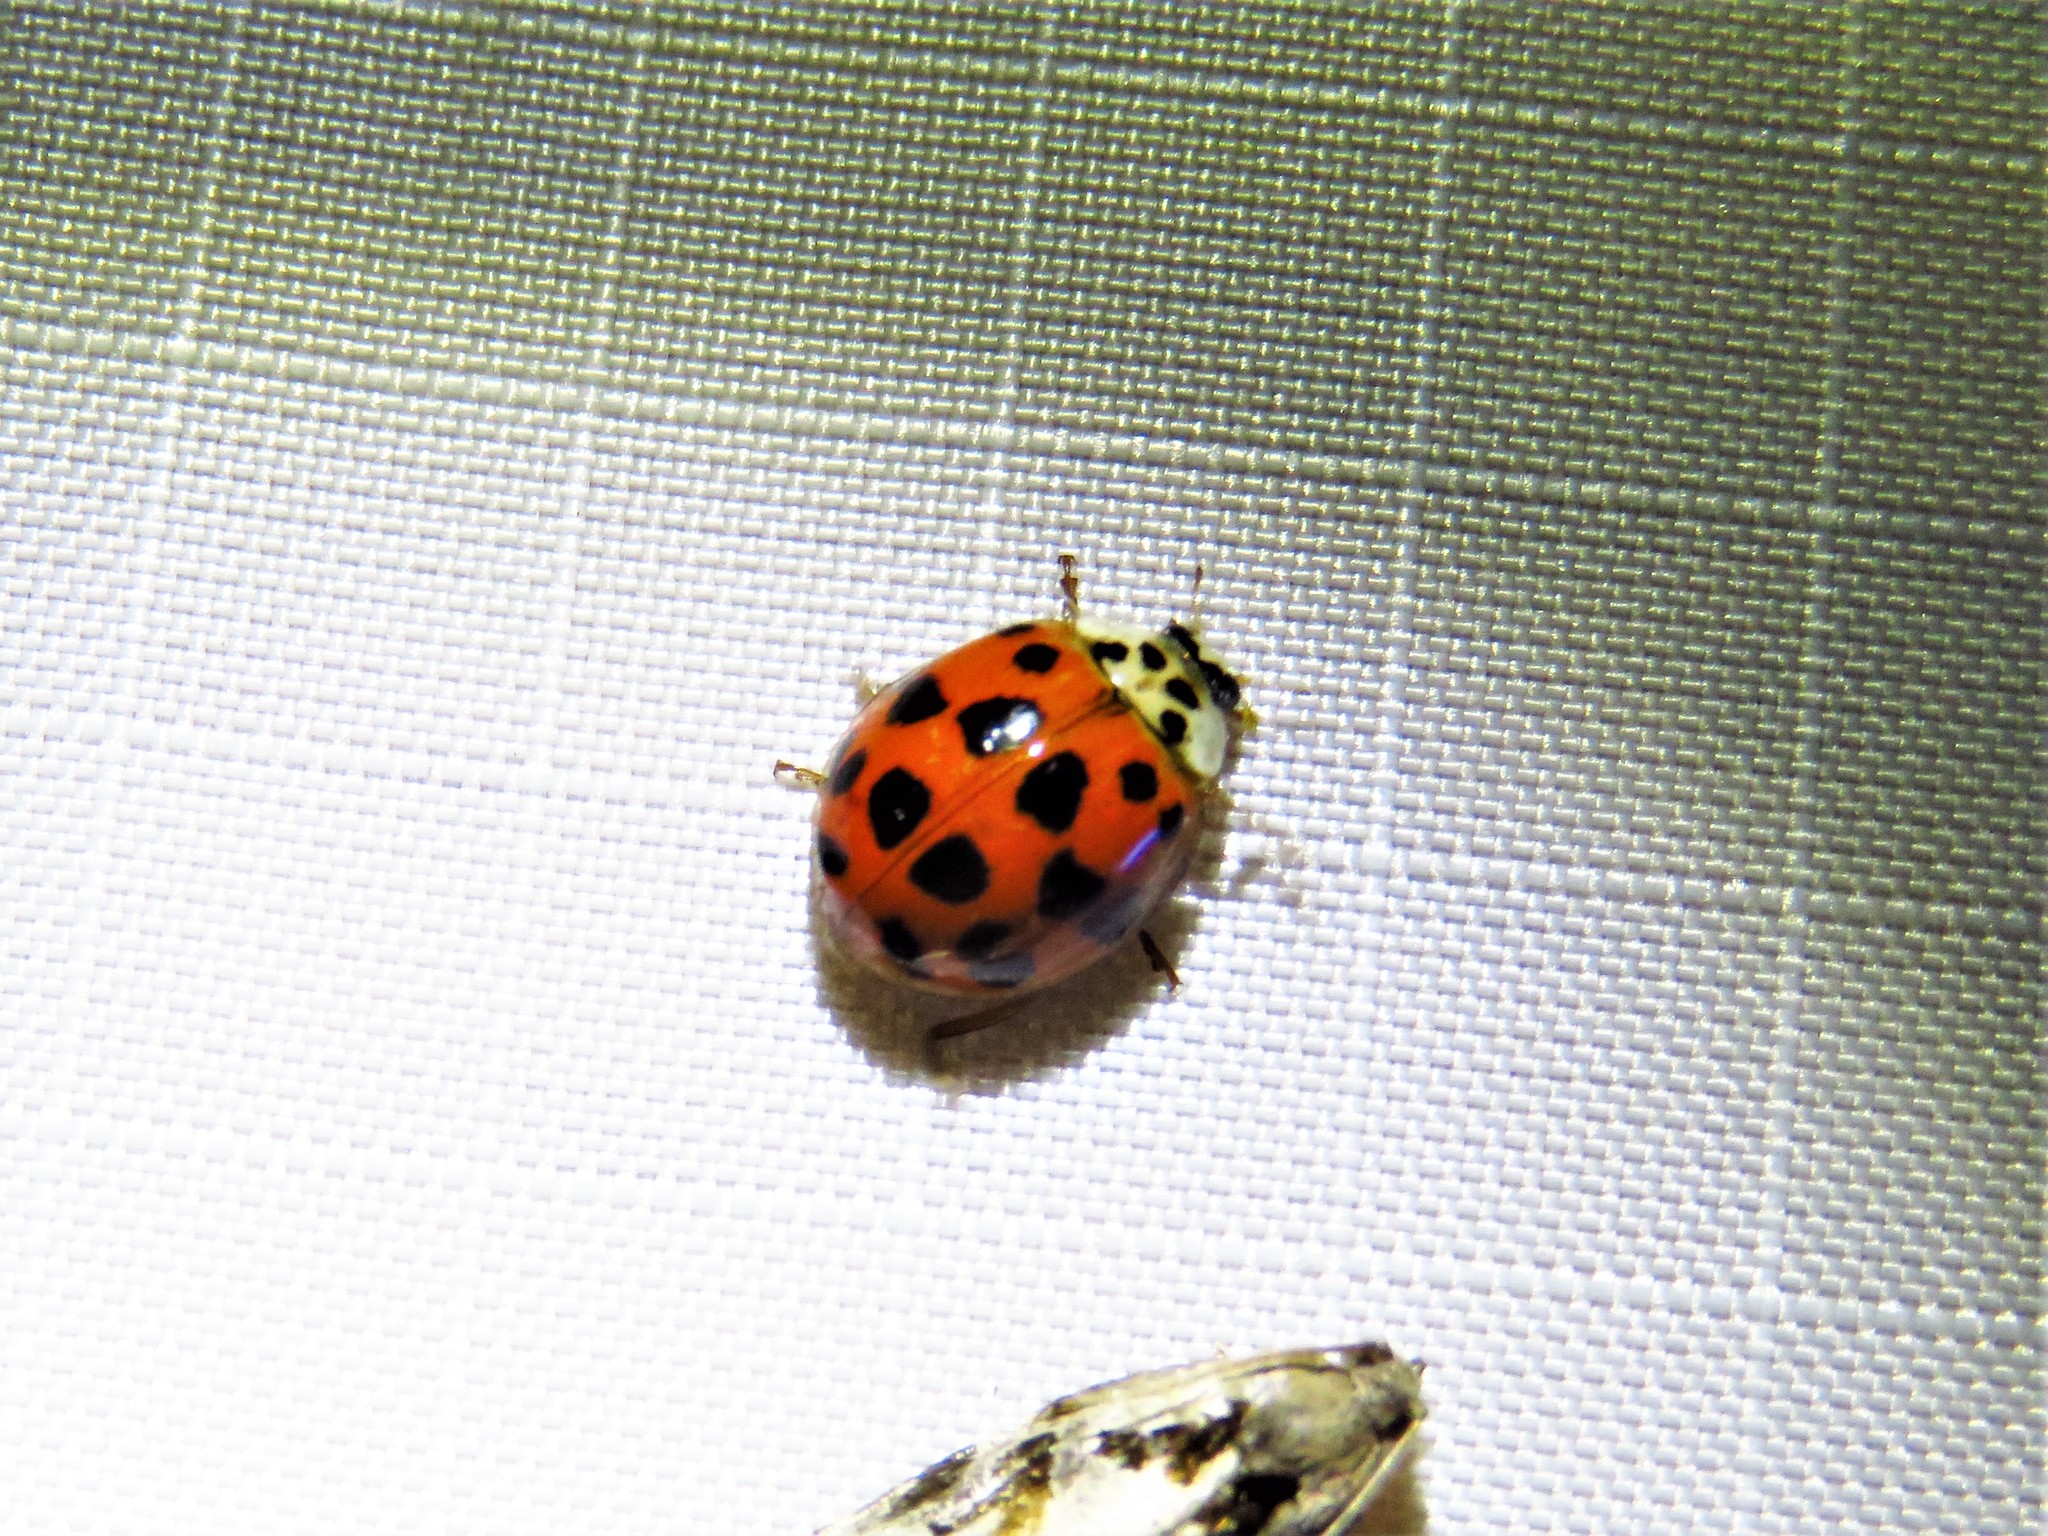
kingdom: Animalia
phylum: Arthropoda
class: Insecta
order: Coleoptera
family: Coccinellidae
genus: Harmonia
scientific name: Harmonia axyridis
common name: Harlequin ladybird
